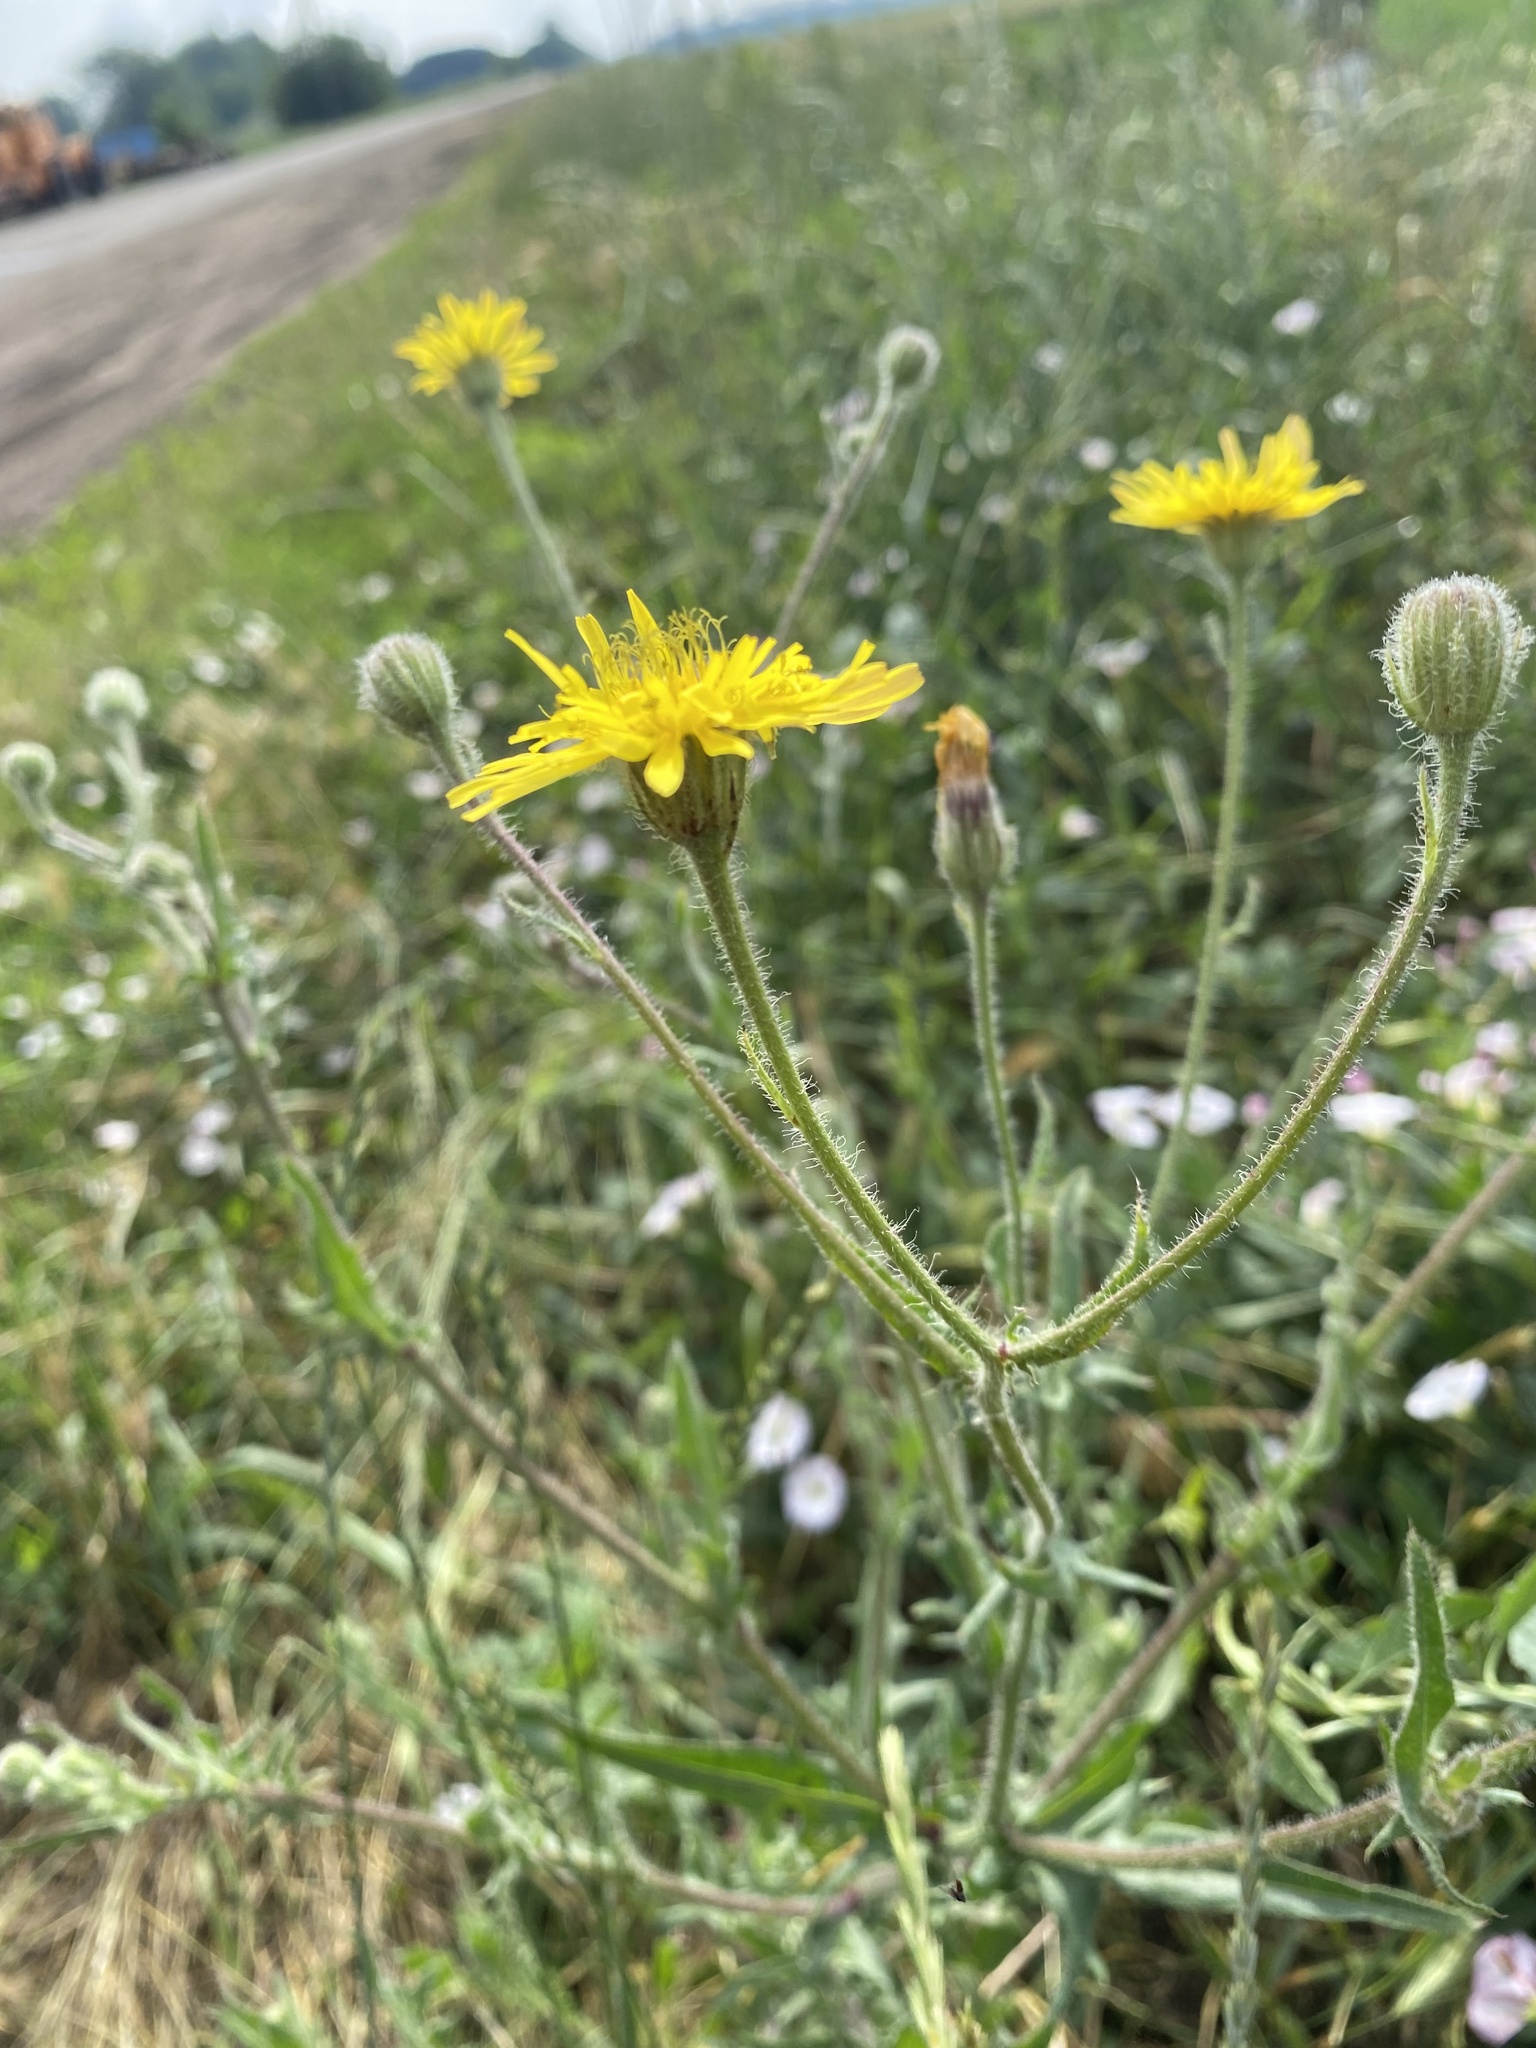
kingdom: Plantae
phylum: Tracheophyta
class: Magnoliopsida
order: Asterales
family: Asteraceae
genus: Crepis
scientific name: Crepis foetida
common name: Stinking hawk's-beard
